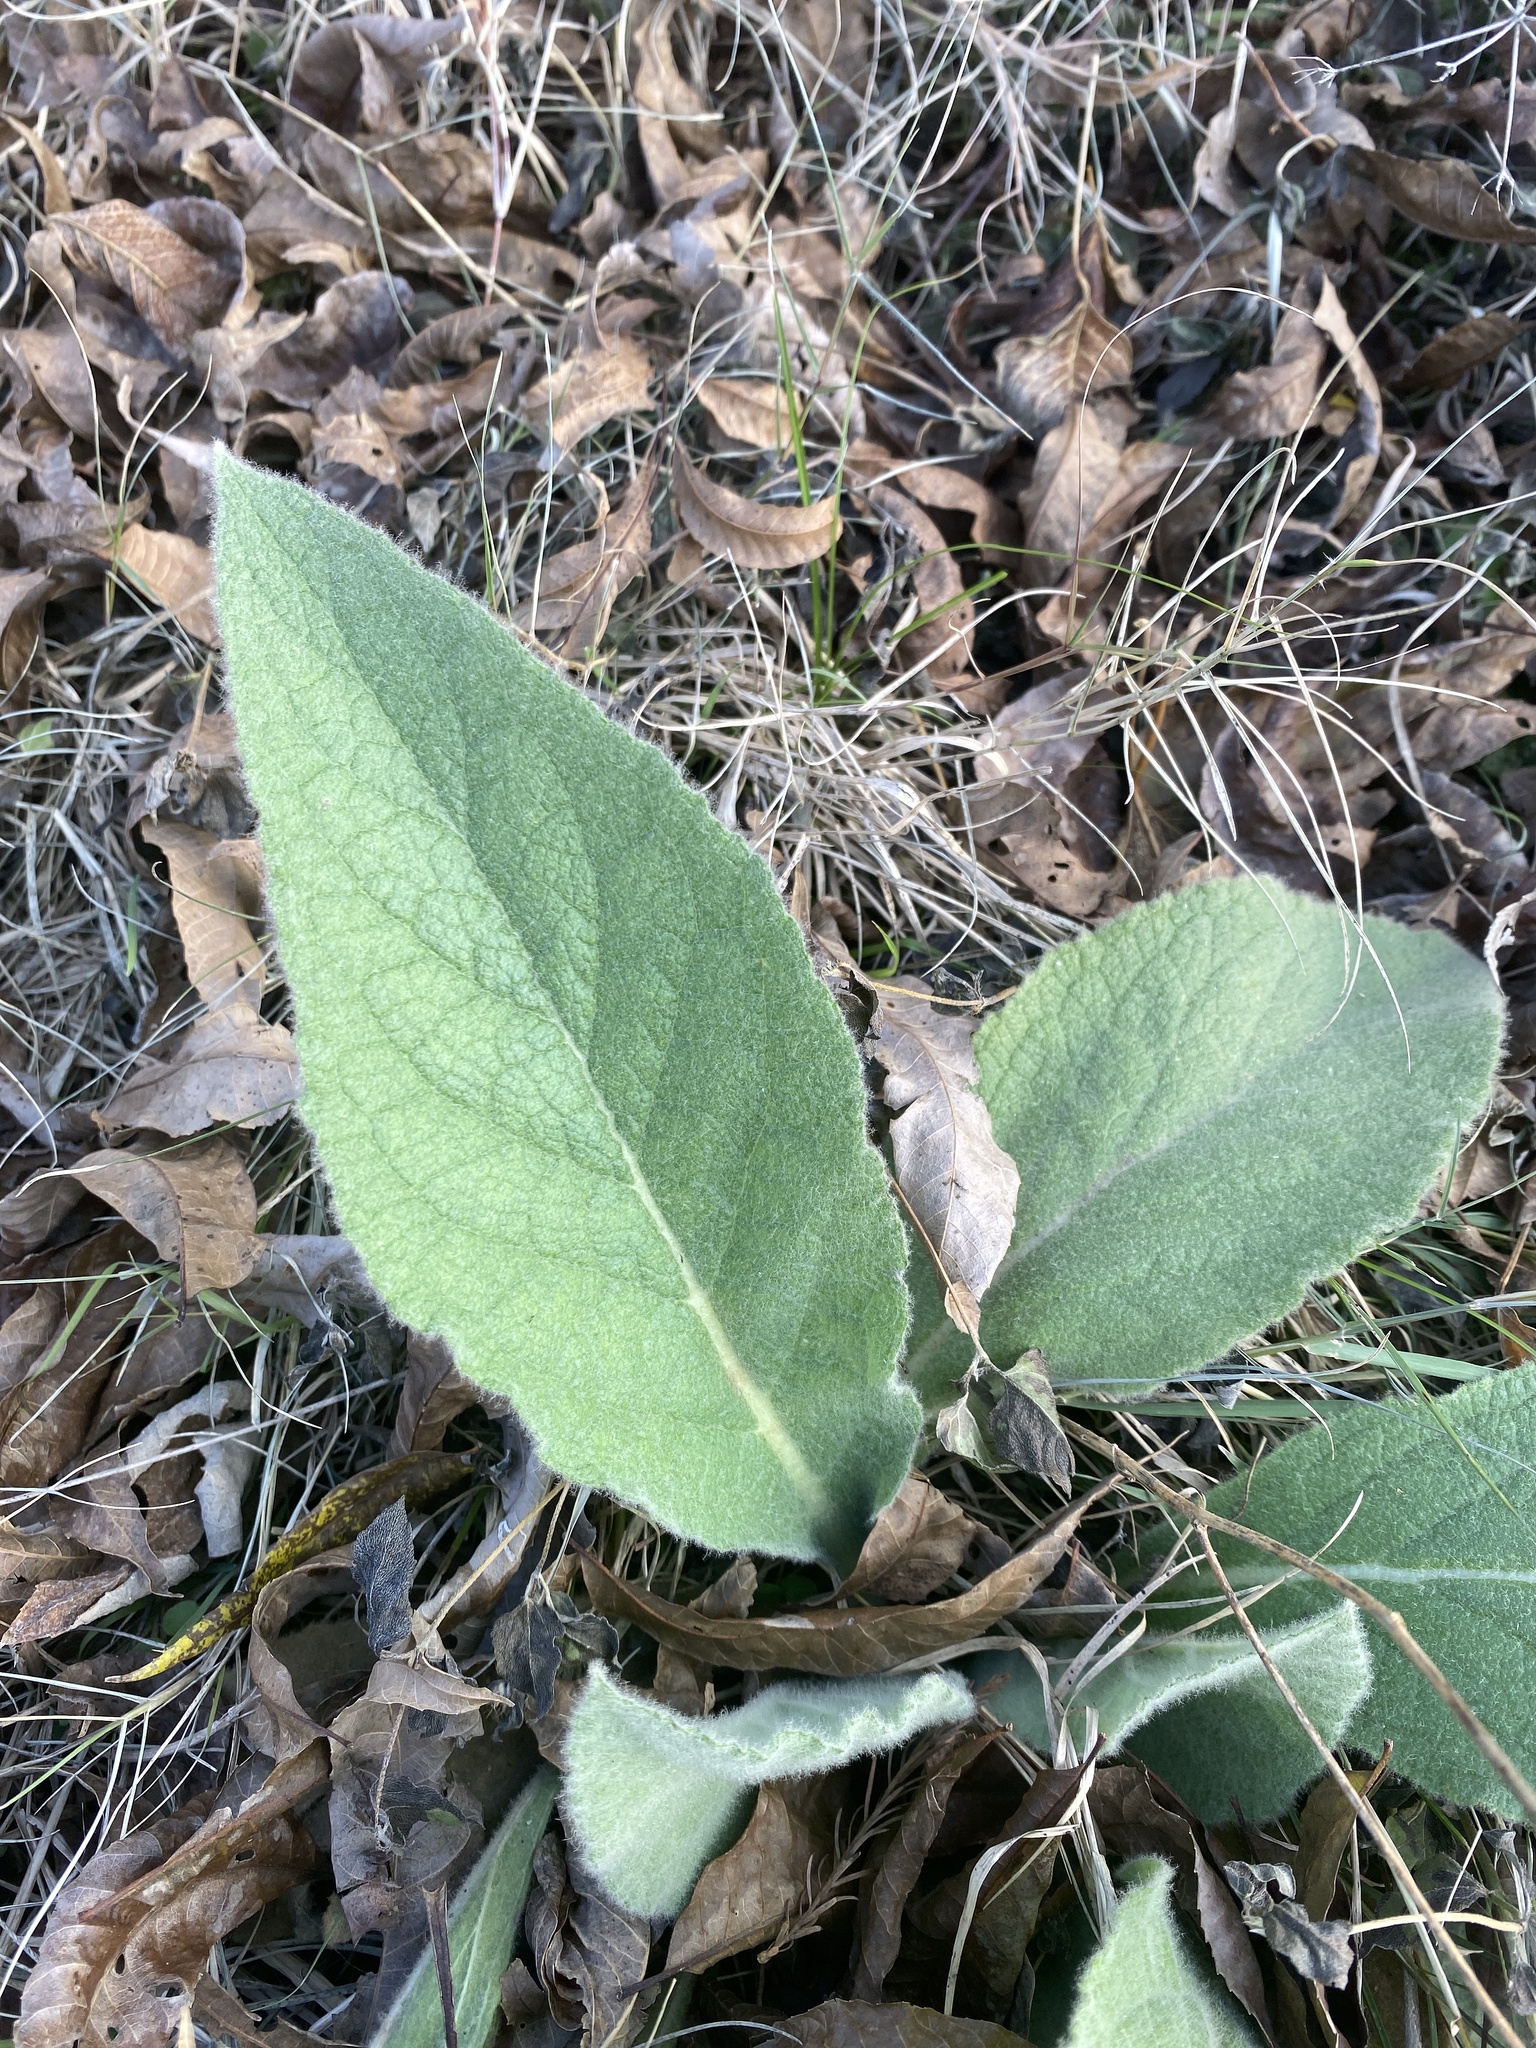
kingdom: Plantae
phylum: Tracheophyta
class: Magnoliopsida
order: Lamiales
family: Scrophulariaceae
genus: Verbascum
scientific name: Verbascum thapsus
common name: Common mullein
